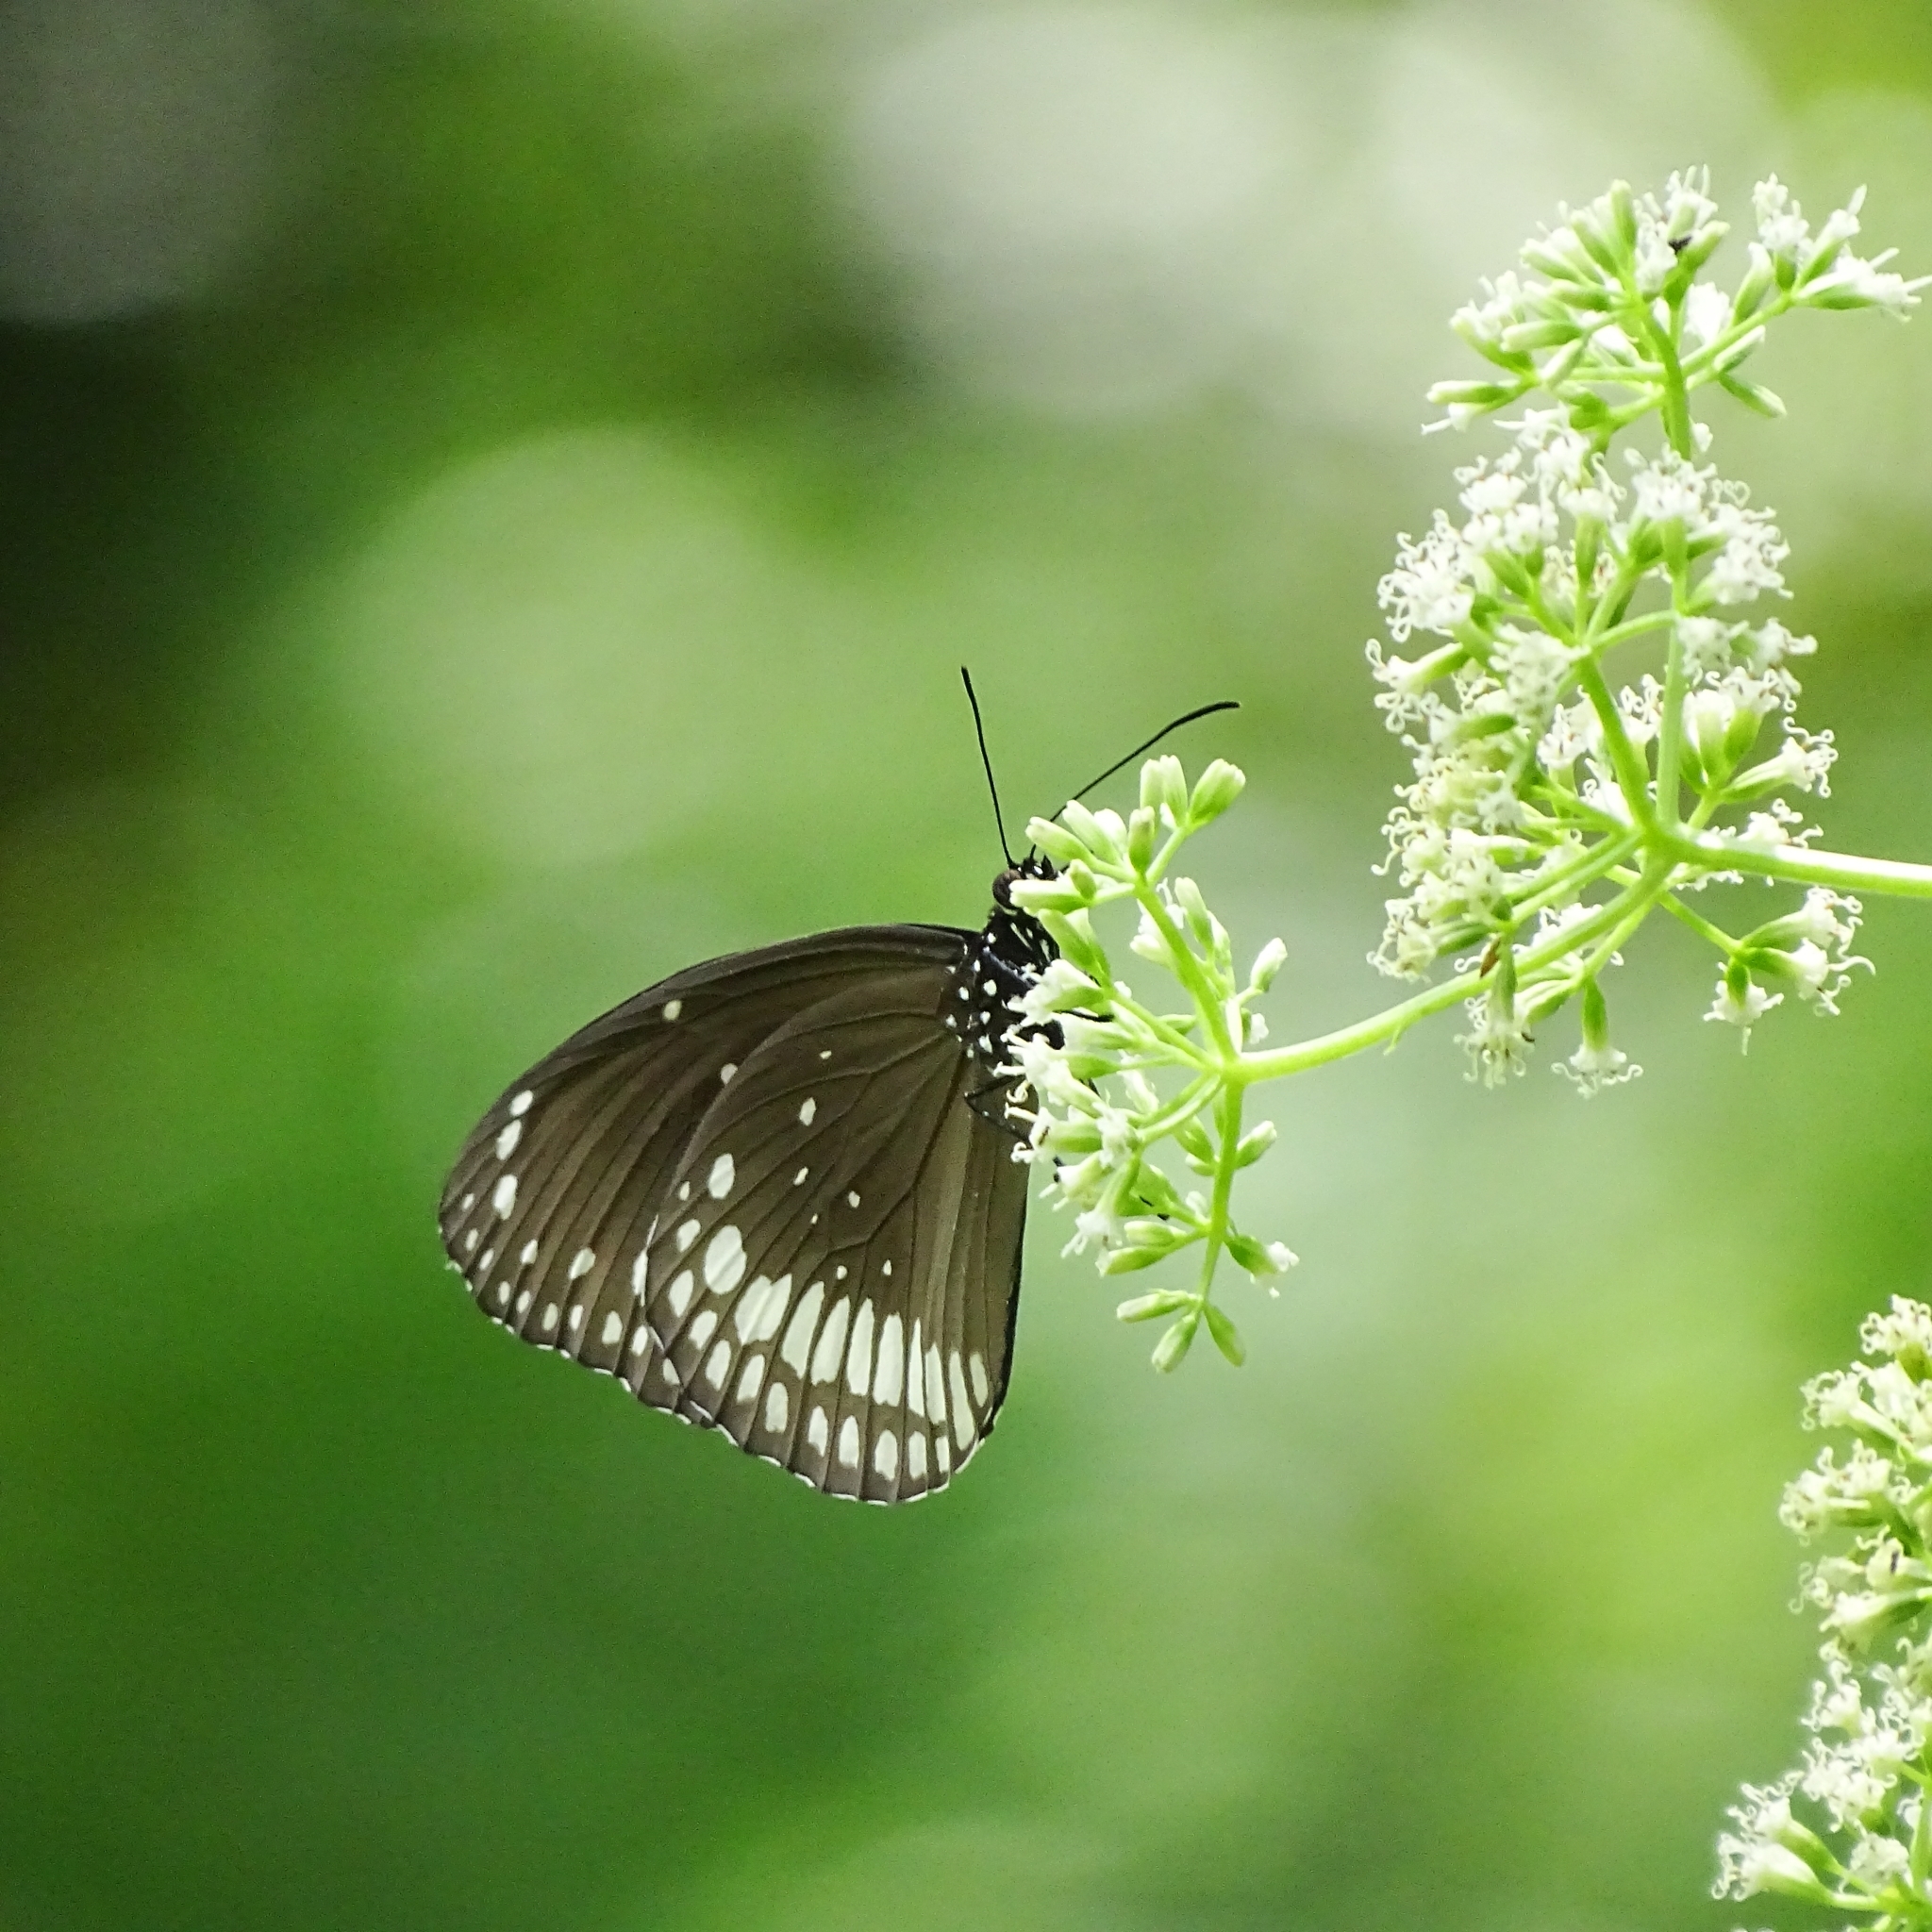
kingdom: Animalia
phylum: Arthropoda
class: Insecta
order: Lepidoptera
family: Nymphalidae
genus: Euploea
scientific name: Euploea core
